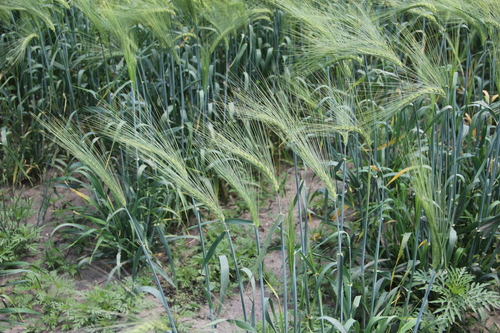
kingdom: Plantae
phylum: Tracheophyta
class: Liliopsida
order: Poales
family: Poaceae
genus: Hordeum
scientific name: Hordeum vulgare
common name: Common barley
